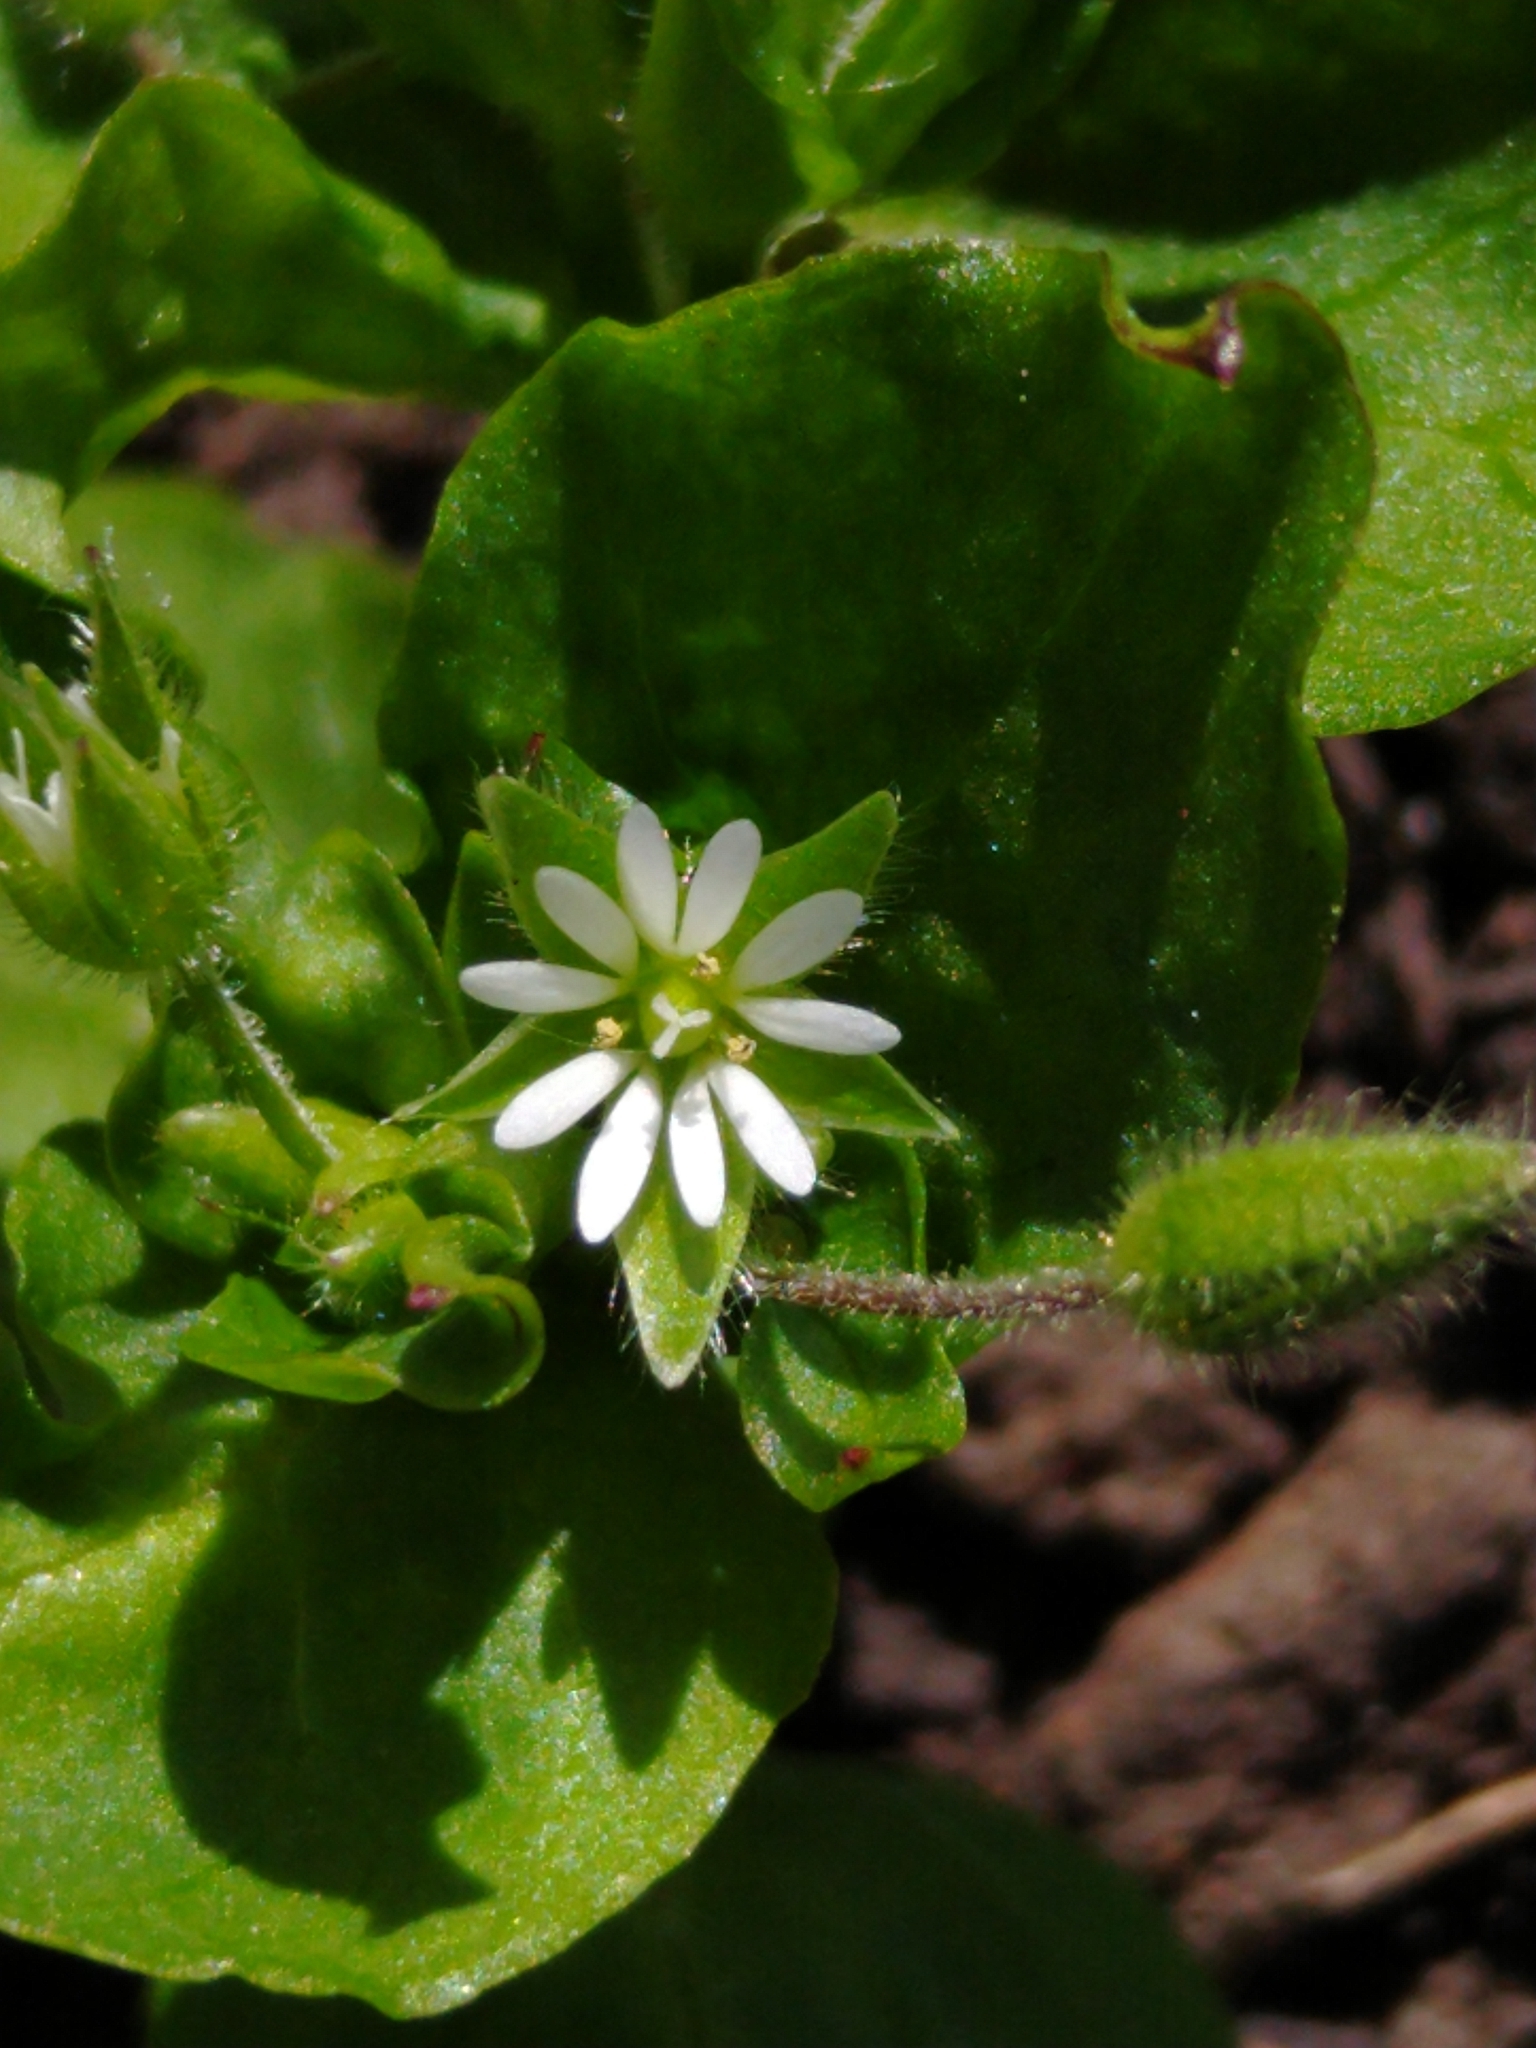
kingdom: Plantae
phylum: Tracheophyta
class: Magnoliopsida
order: Caryophyllales
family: Caryophyllaceae
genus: Stellaria
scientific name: Stellaria media
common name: Common chickweed
